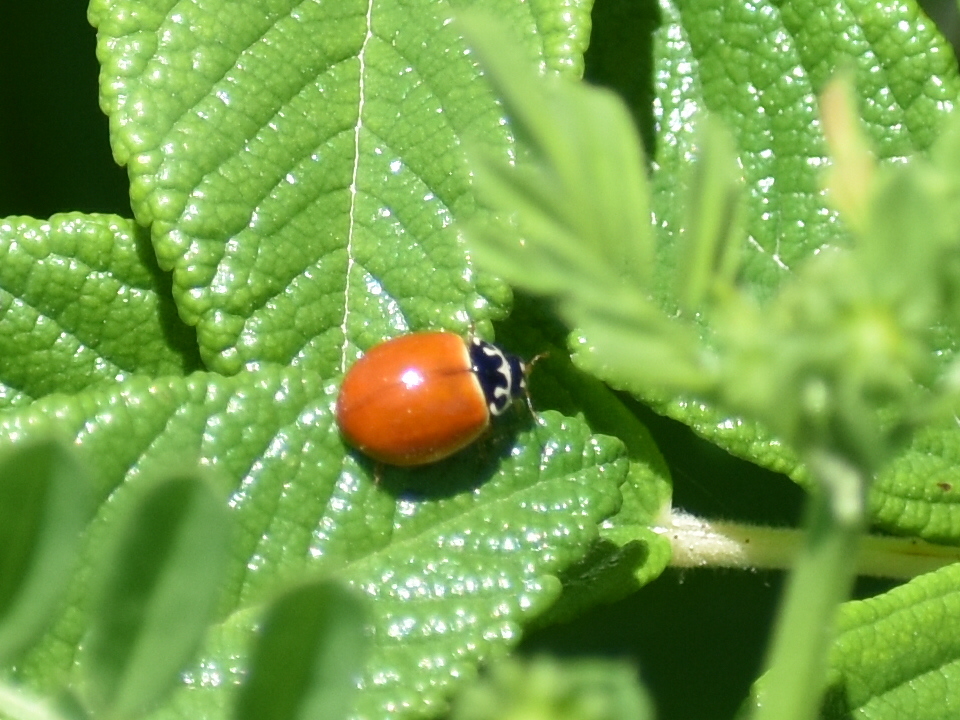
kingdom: Animalia
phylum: Arthropoda
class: Insecta
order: Coleoptera
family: Coccinellidae
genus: Cycloneda
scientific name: Cycloneda munda
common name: Polished lady beetle
